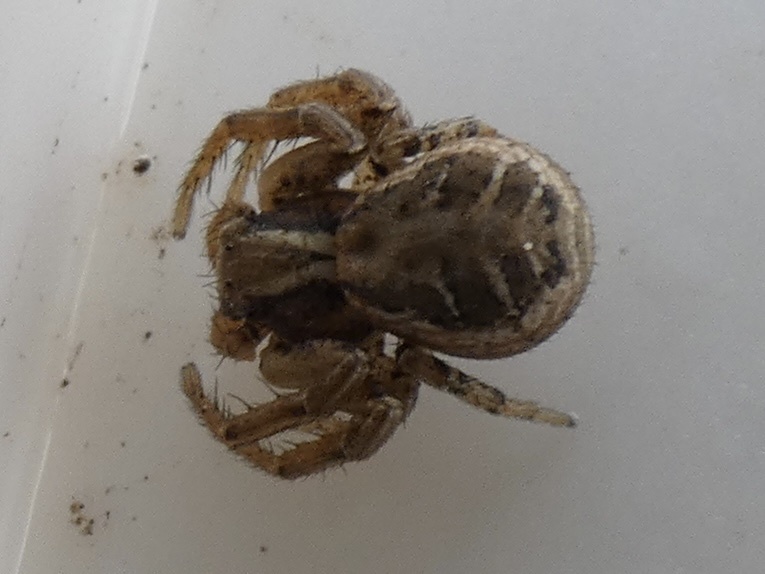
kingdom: Animalia
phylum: Arthropoda
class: Arachnida
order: Araneae
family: Thomisidae
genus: Xysticus
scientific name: Xysticus
